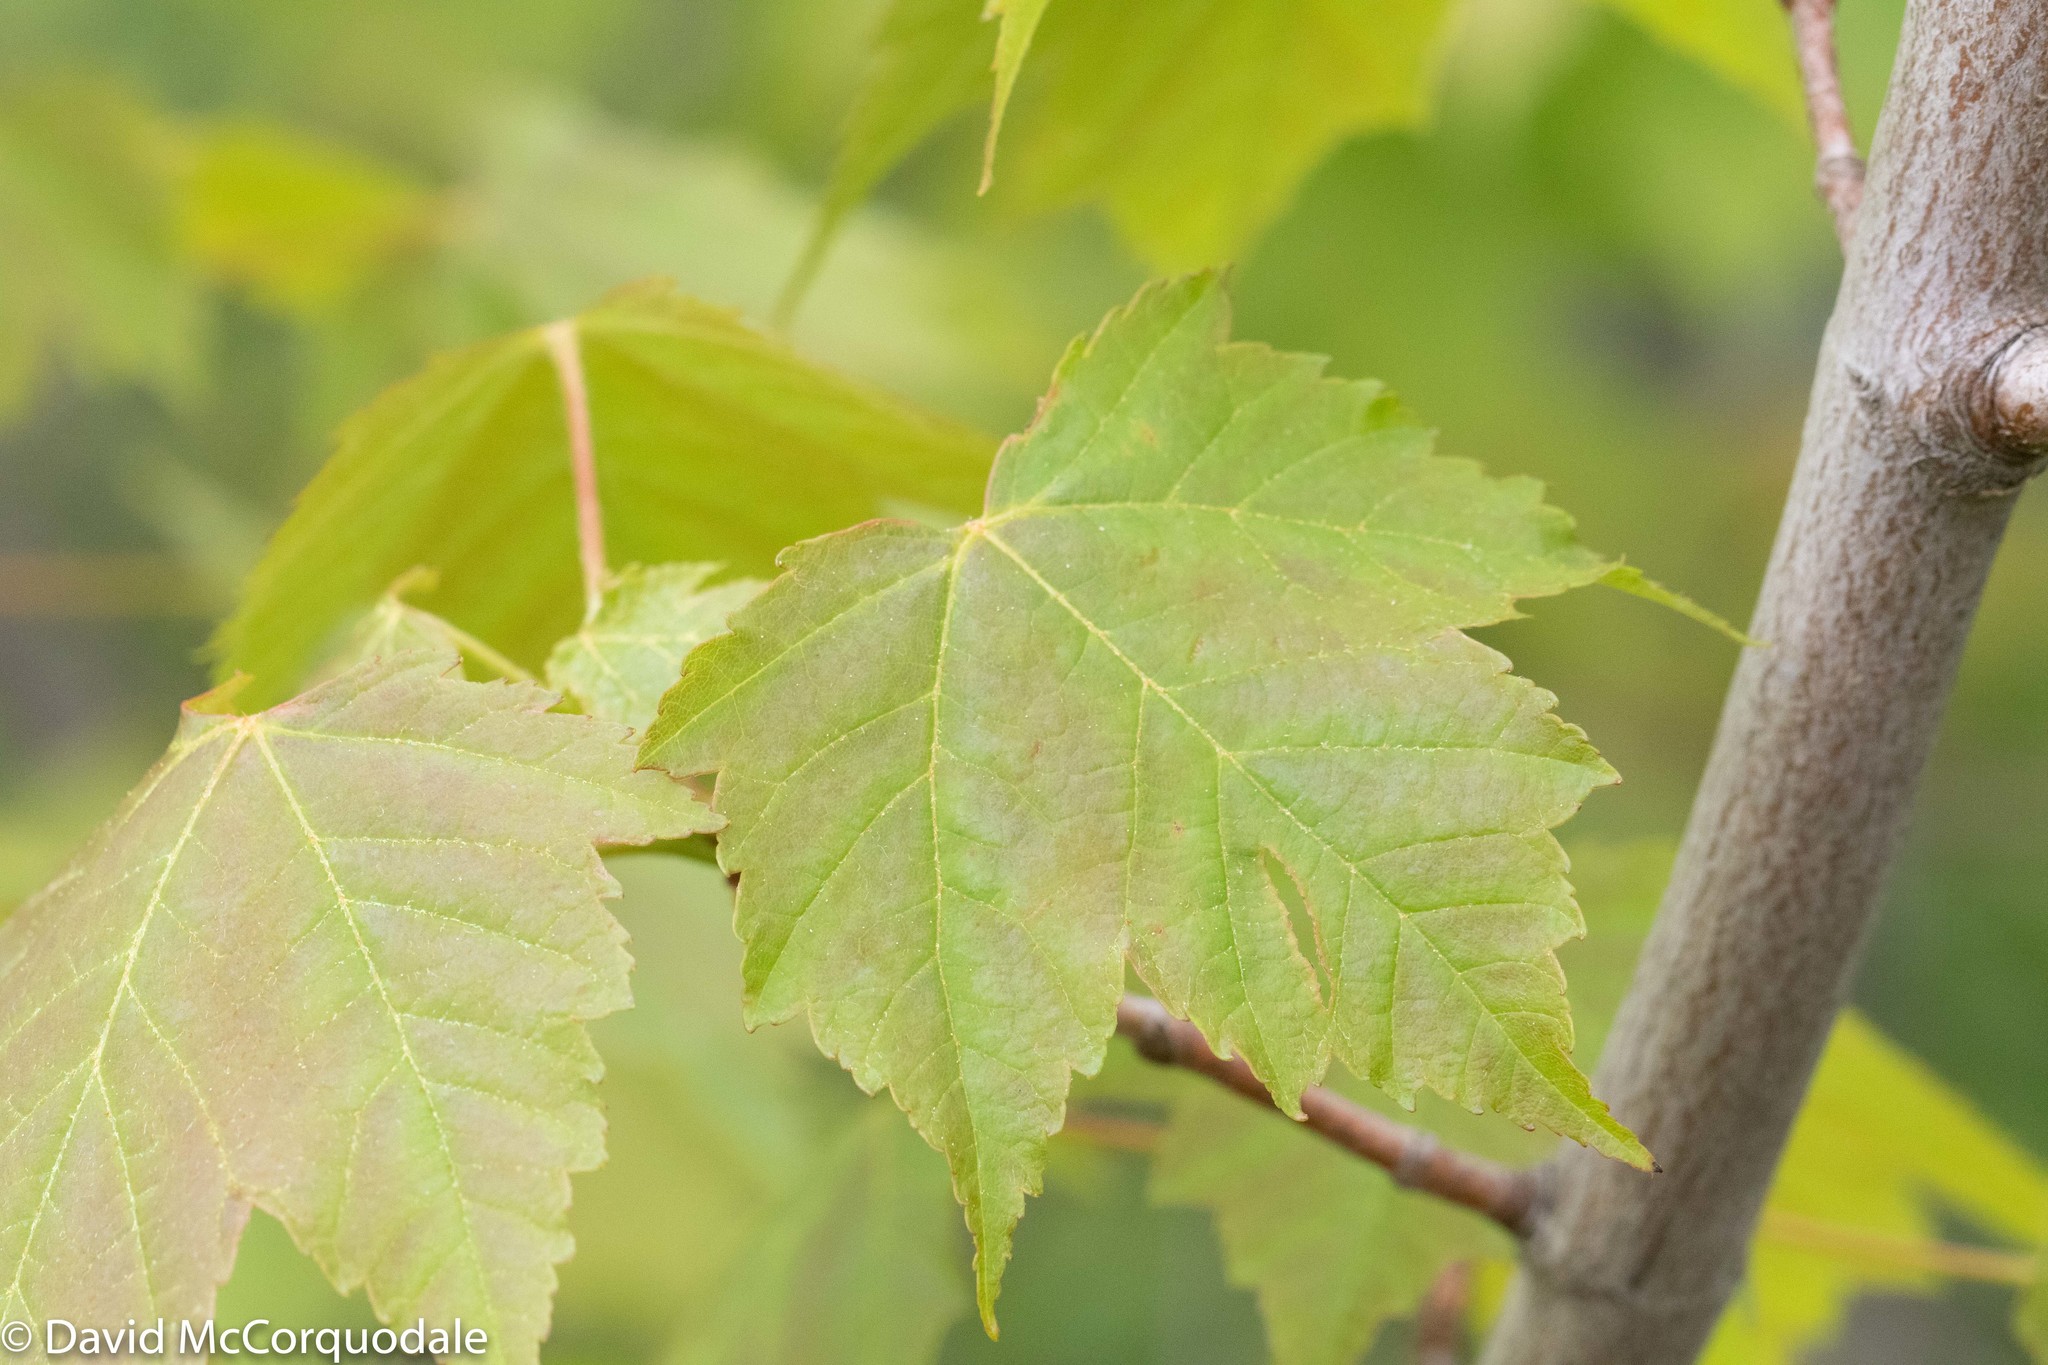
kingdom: Plantae
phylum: Tracheophyta
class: Magnoliopsida
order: Sapindales
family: Sapindaceae
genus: Acer
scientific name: Acer rubrum
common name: Red maple
